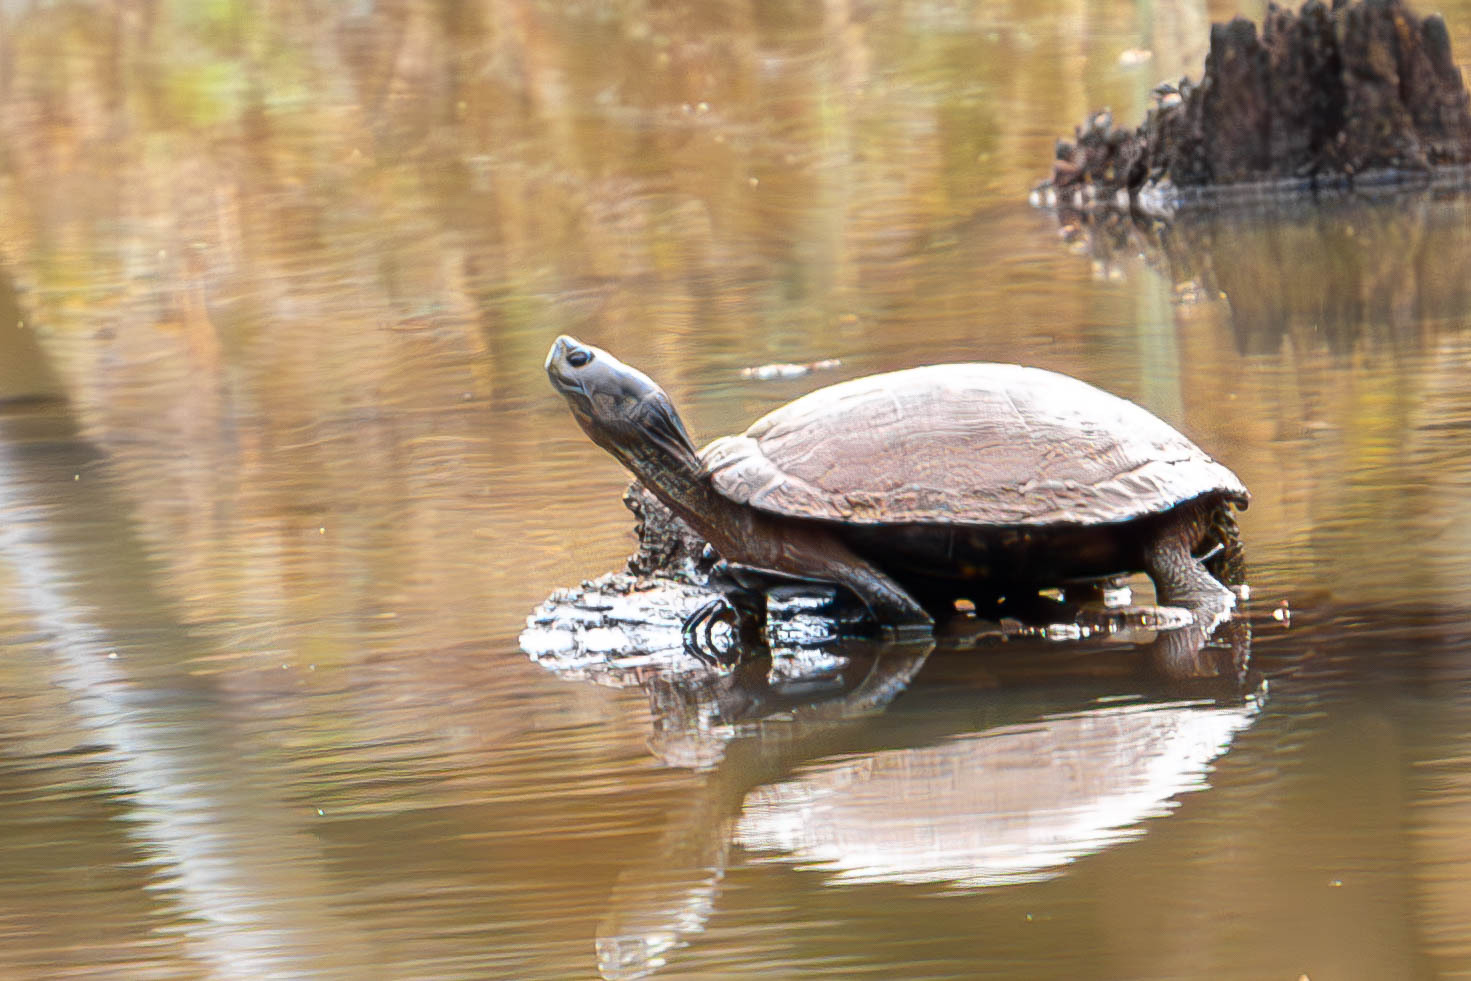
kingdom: Animalia
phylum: Chordata
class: Testudines
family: Emydidae
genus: Trachemys
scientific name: Trachemys scripta
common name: Slider
